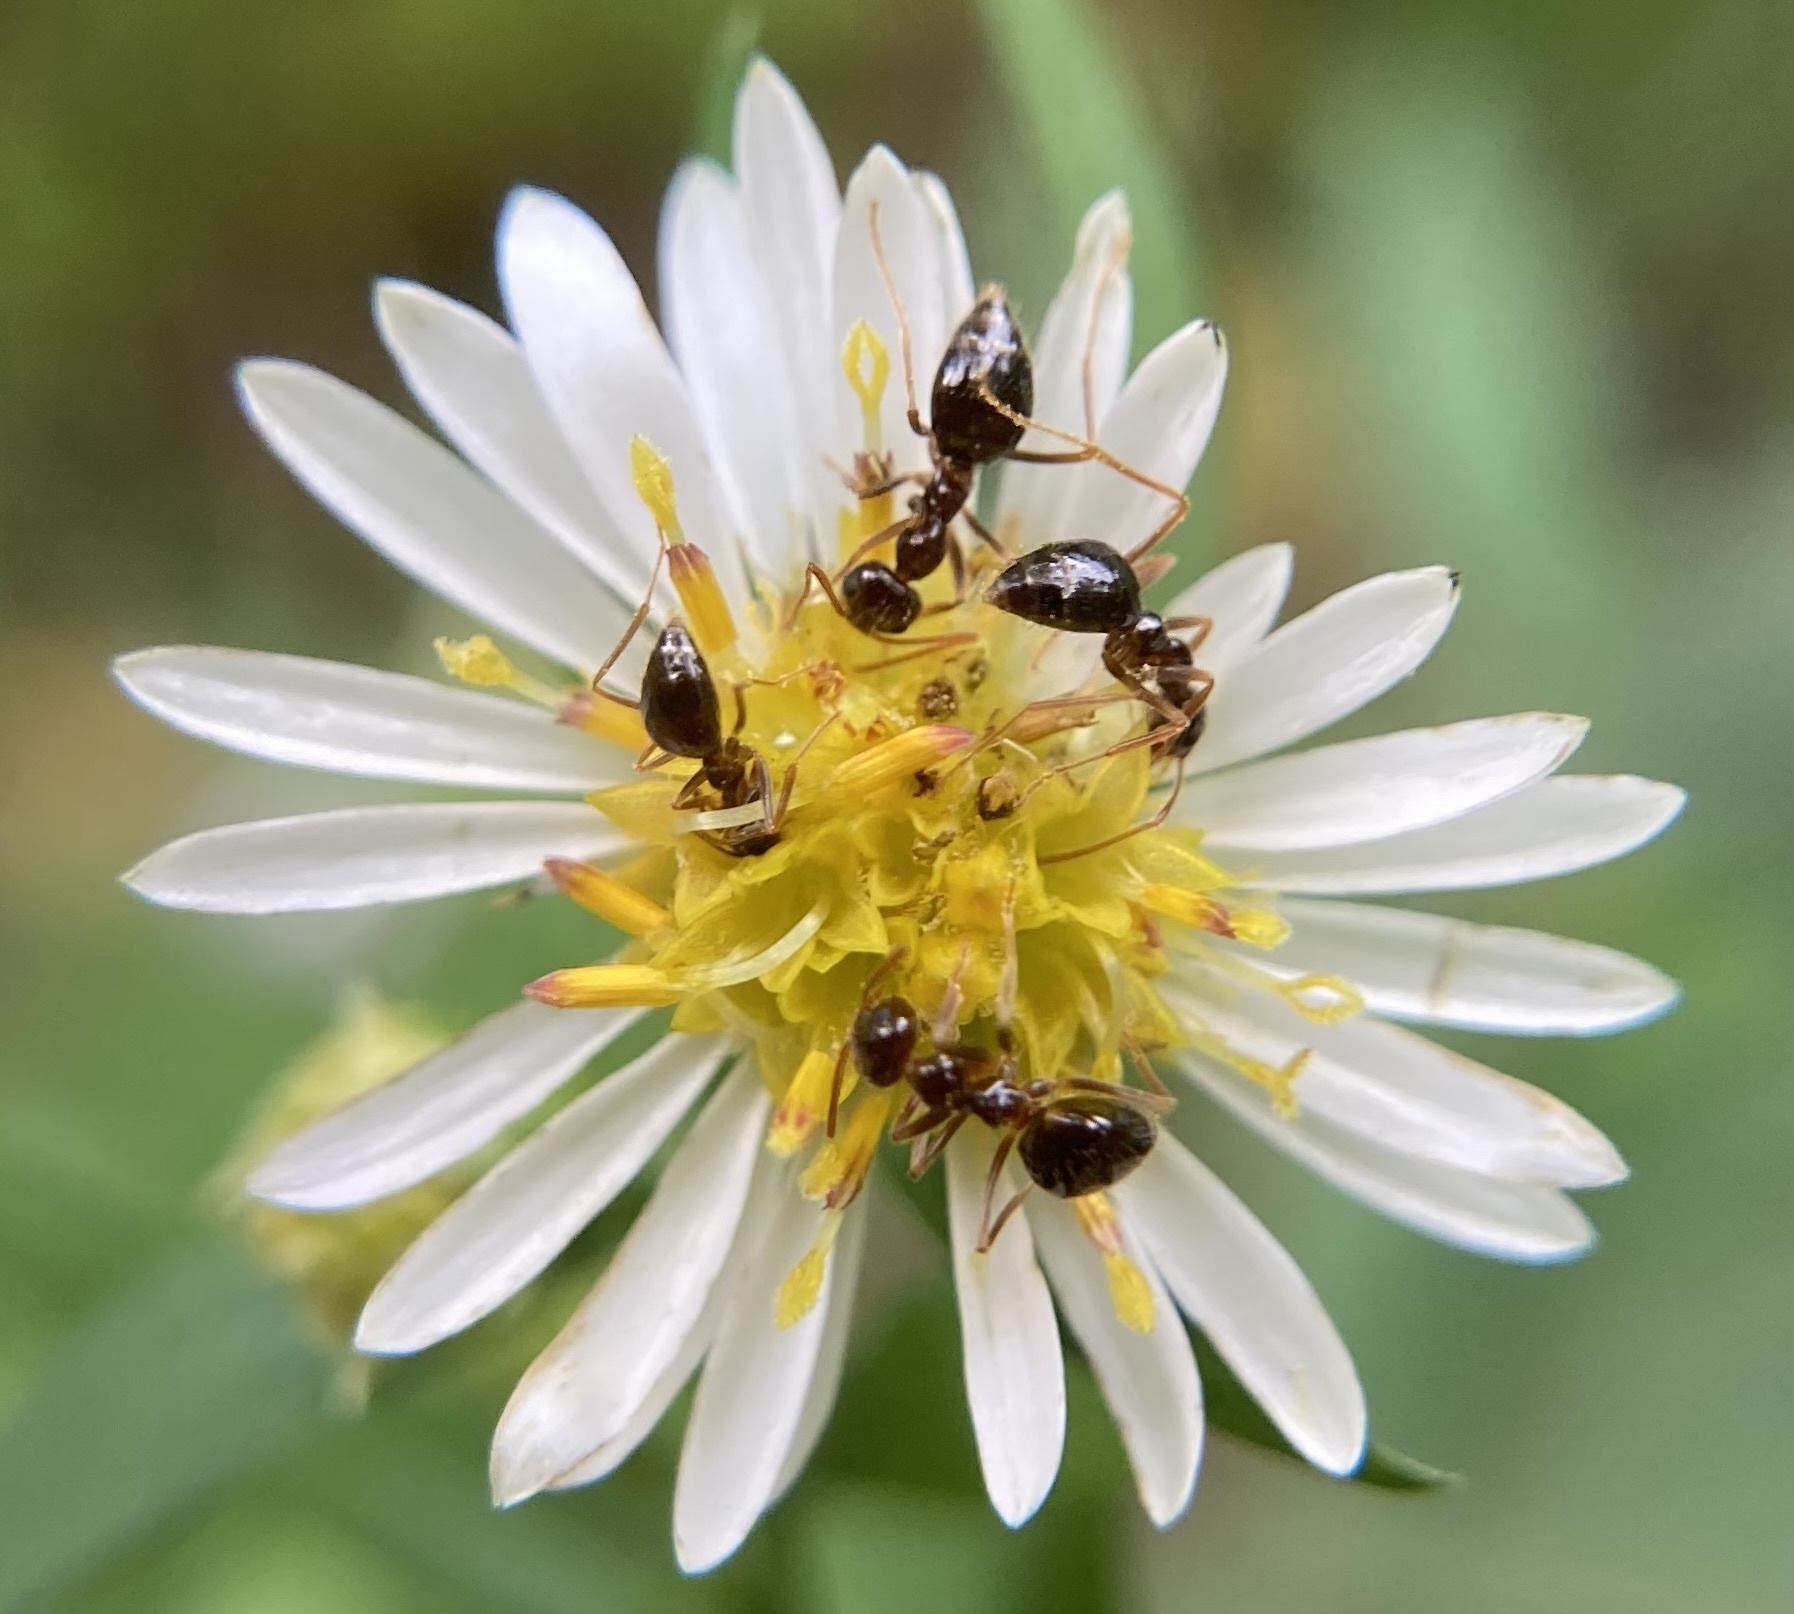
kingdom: Animalia
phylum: Arthropoda
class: Insecta
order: Hymenoptera
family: Formicidae
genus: Prenolepis
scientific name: Prenolepis imparis
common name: Small honey ant
